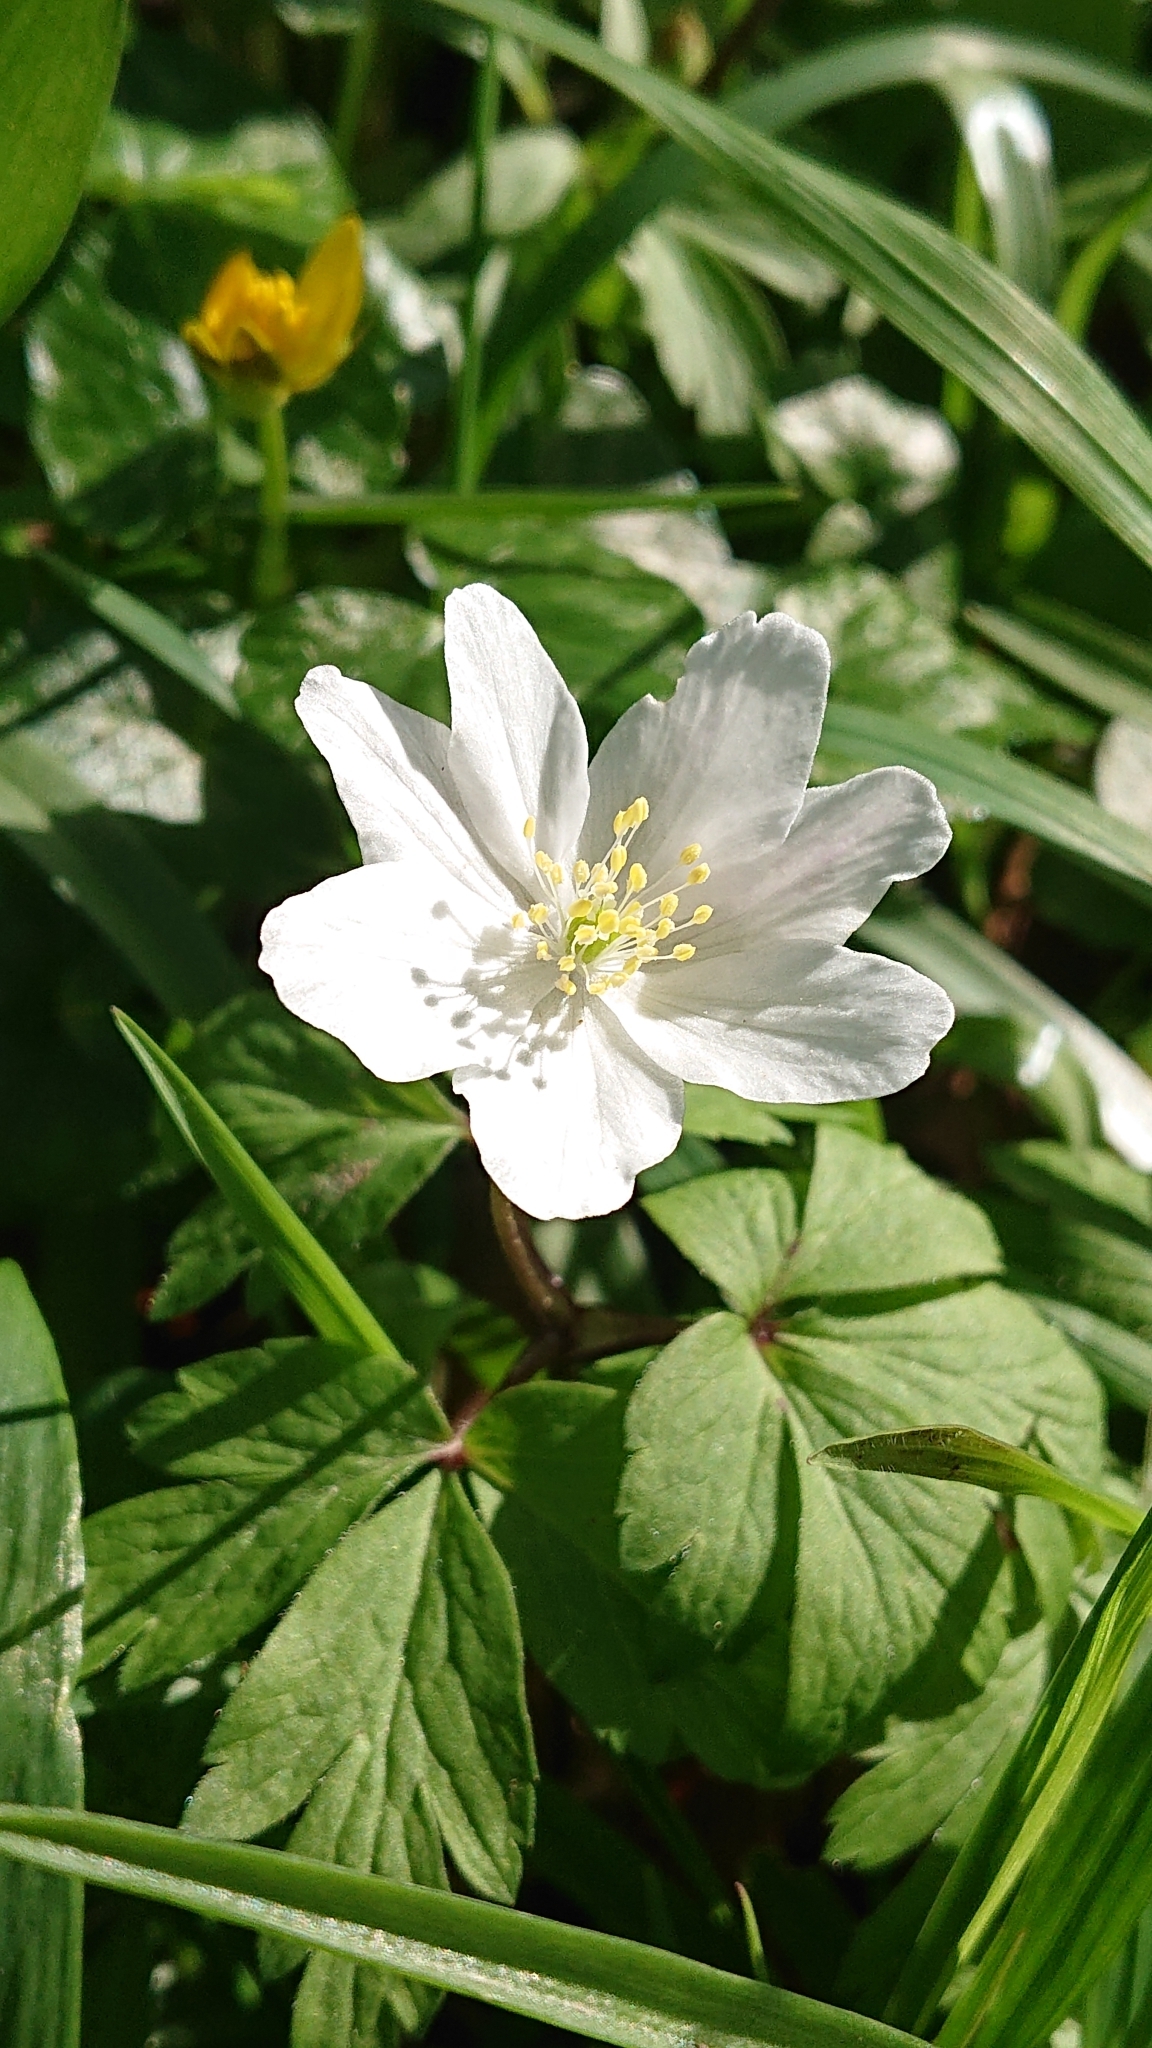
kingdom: Plantae
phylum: Tracheophyta
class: Magnoliopsida
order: Ranunculales
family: Ranunculaceae
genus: Anemone
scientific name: Anemone nemorosa
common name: Wood anemone
